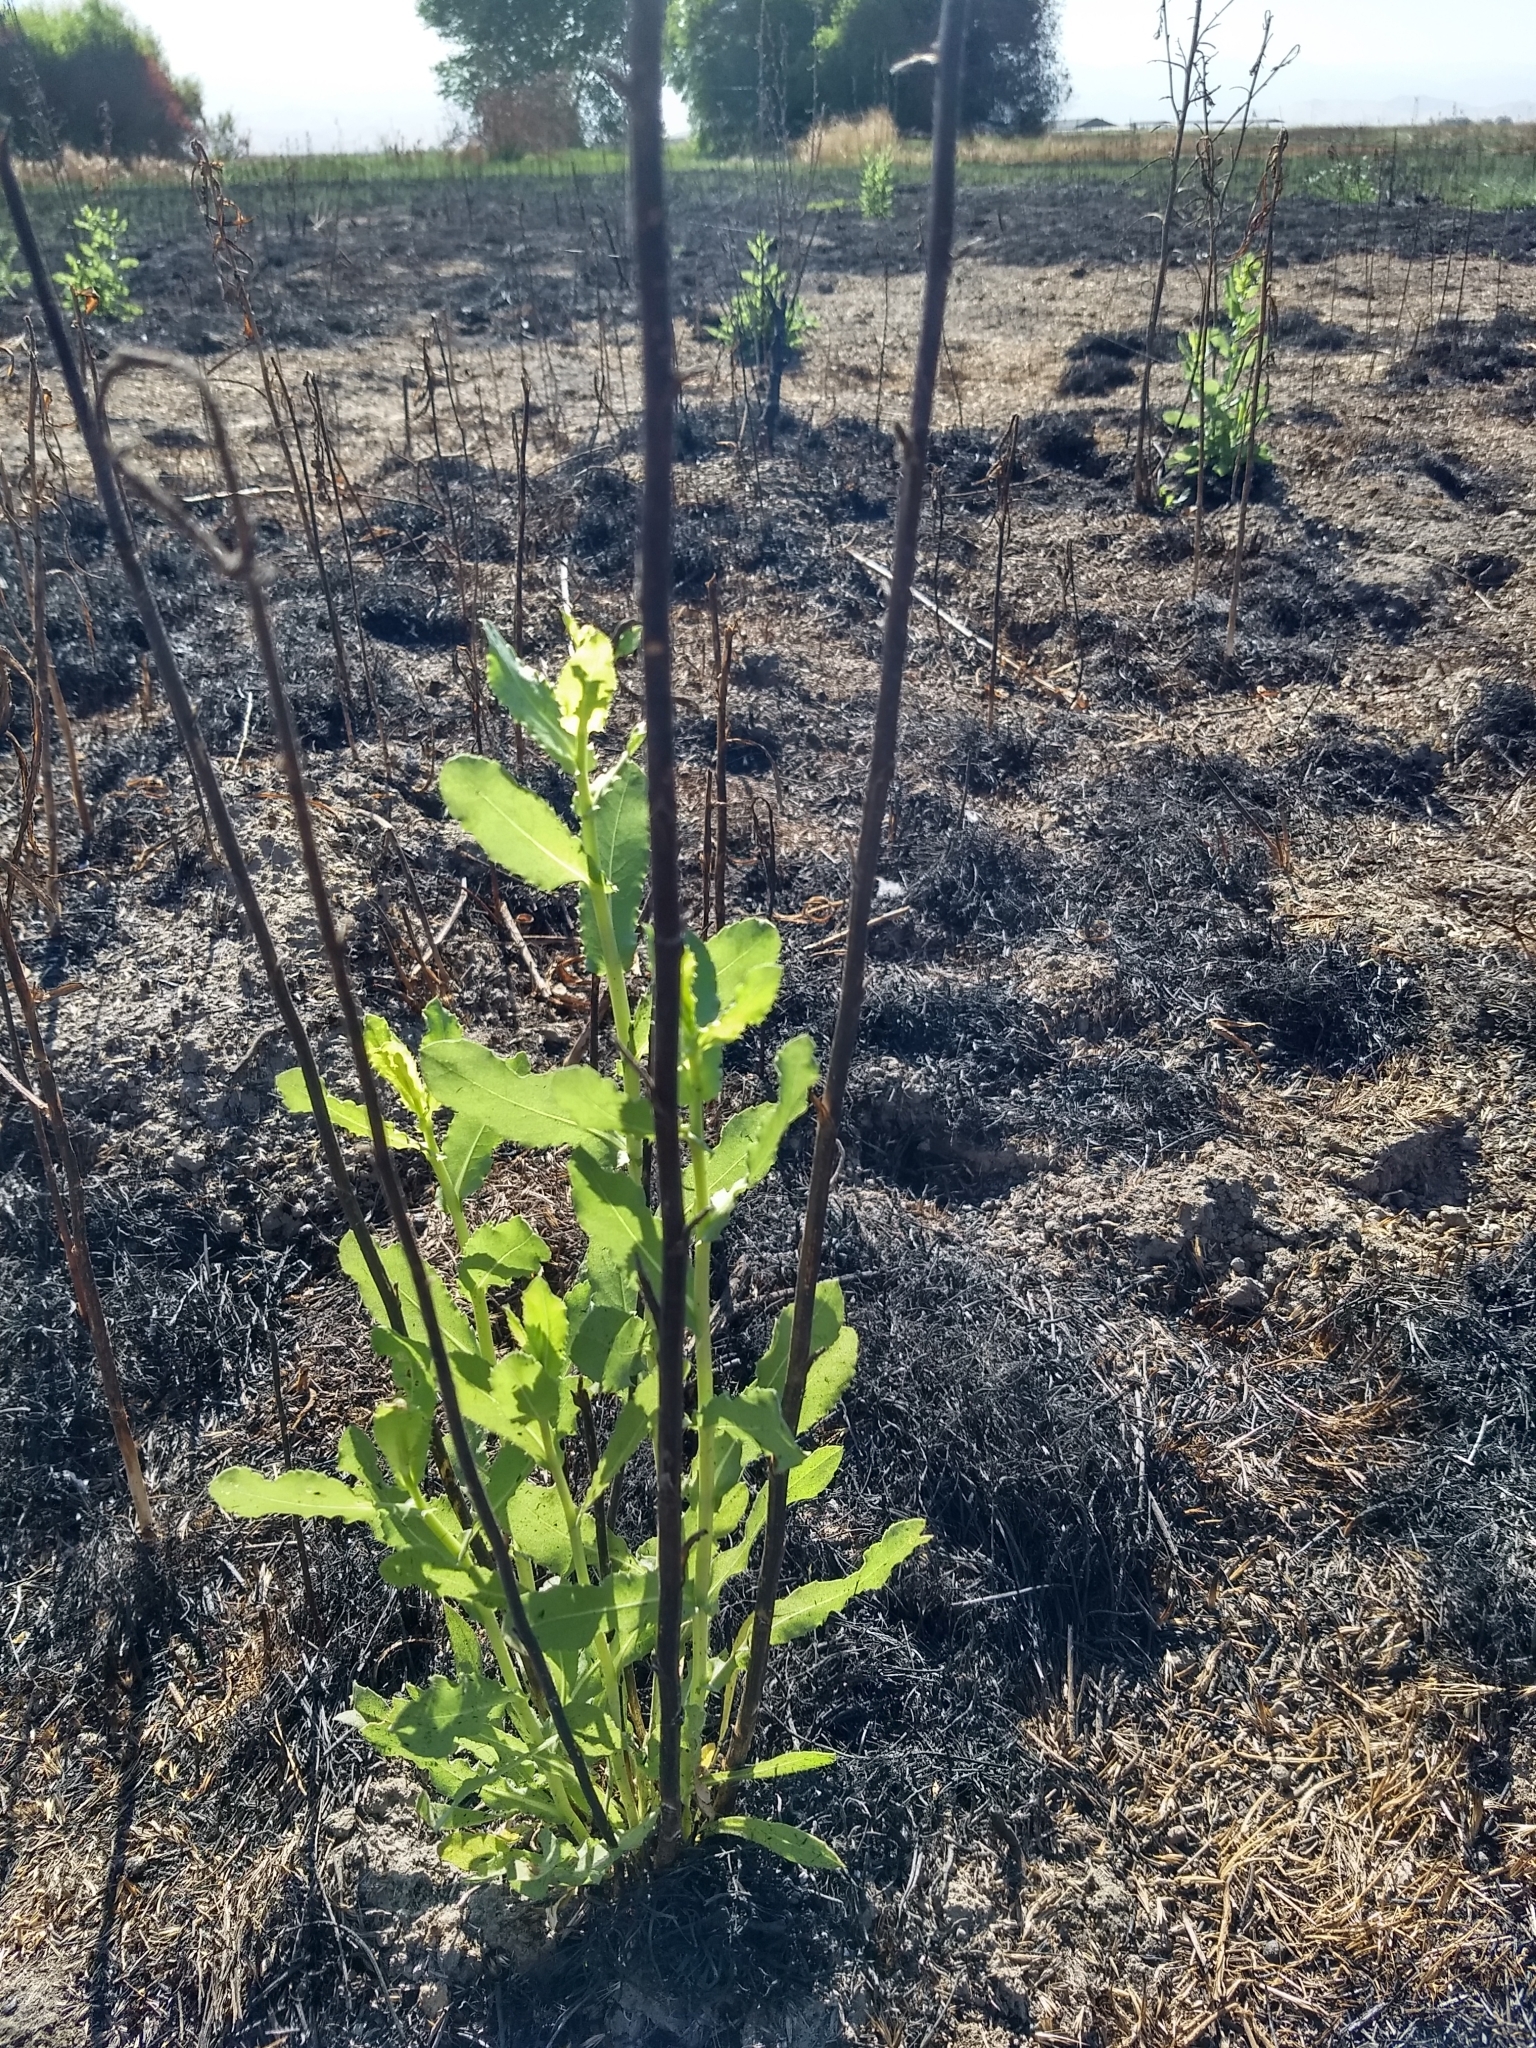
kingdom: Plantae
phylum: Tracheophyta
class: Magnoliopsida
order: Asterales
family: Asteraceae
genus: Grindelia
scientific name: Grindelia hirsutula
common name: Hairy gumweed
